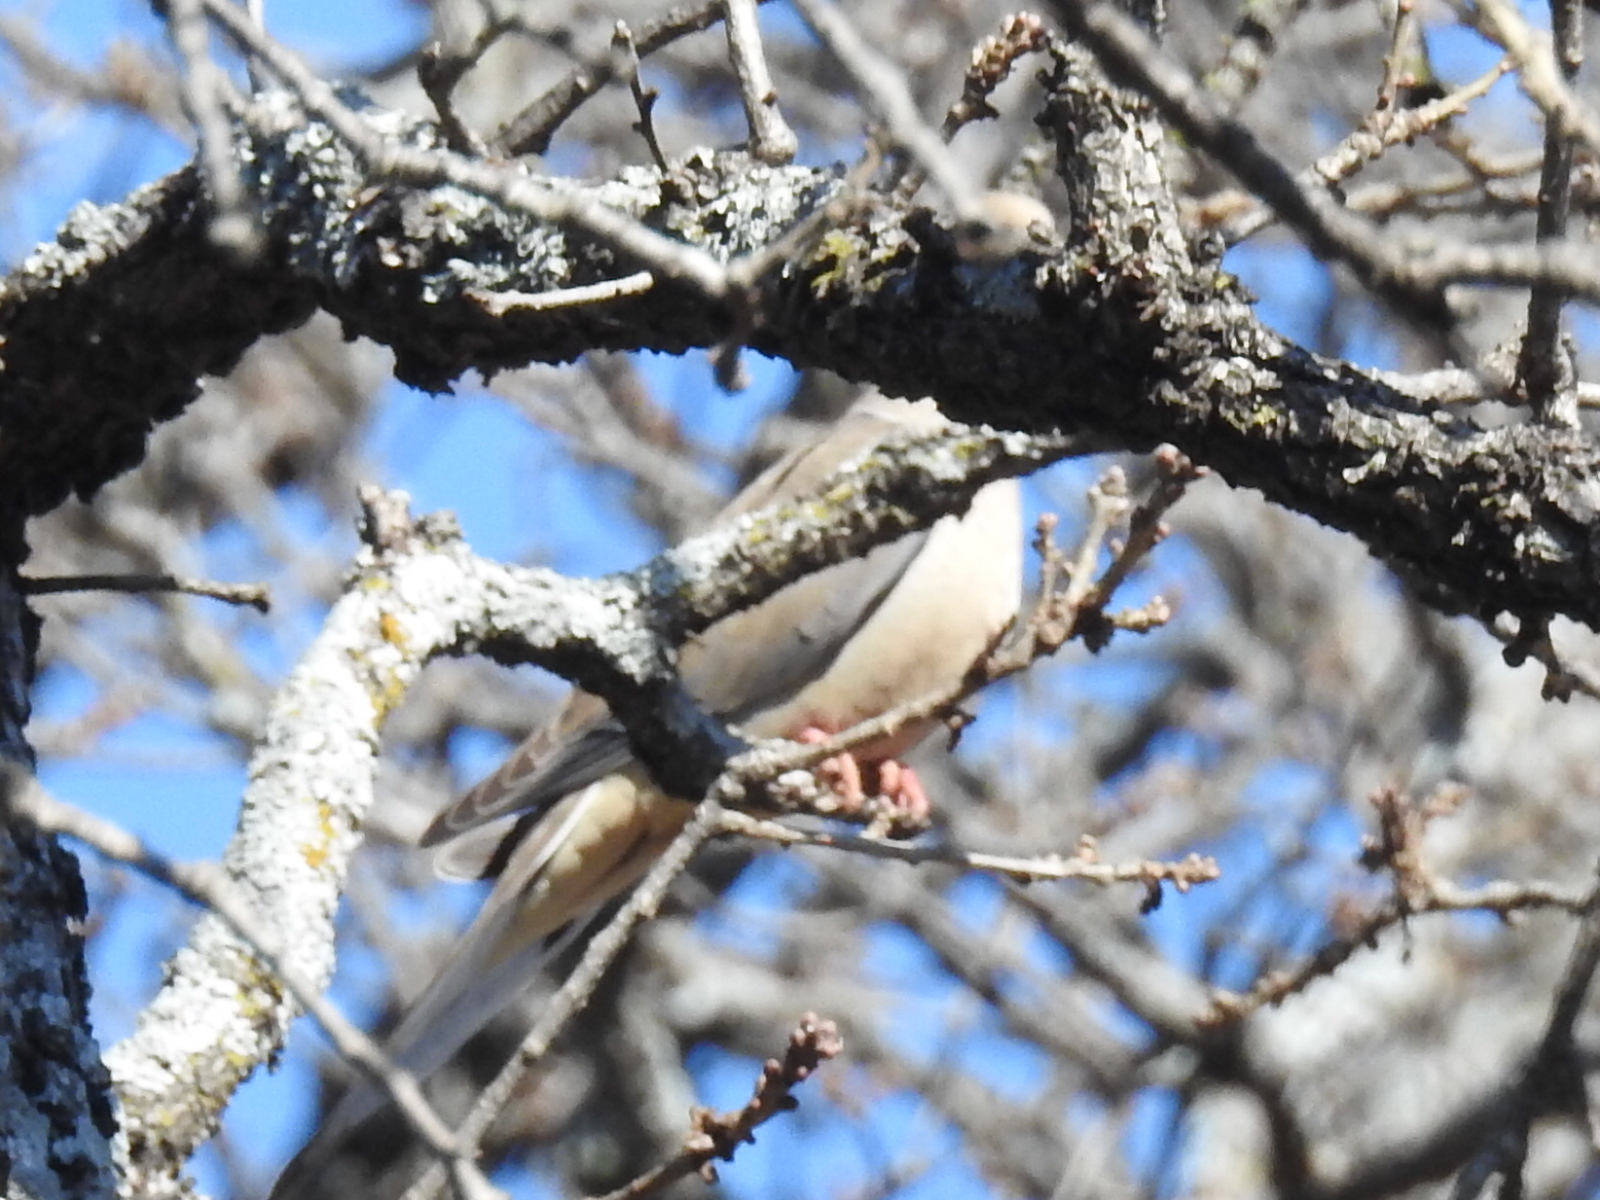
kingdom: Animalia
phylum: Chordata
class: Aves
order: Columbiformes
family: Columbidae
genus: Zenaida
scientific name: Zenaida macroura
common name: Mourning dove
